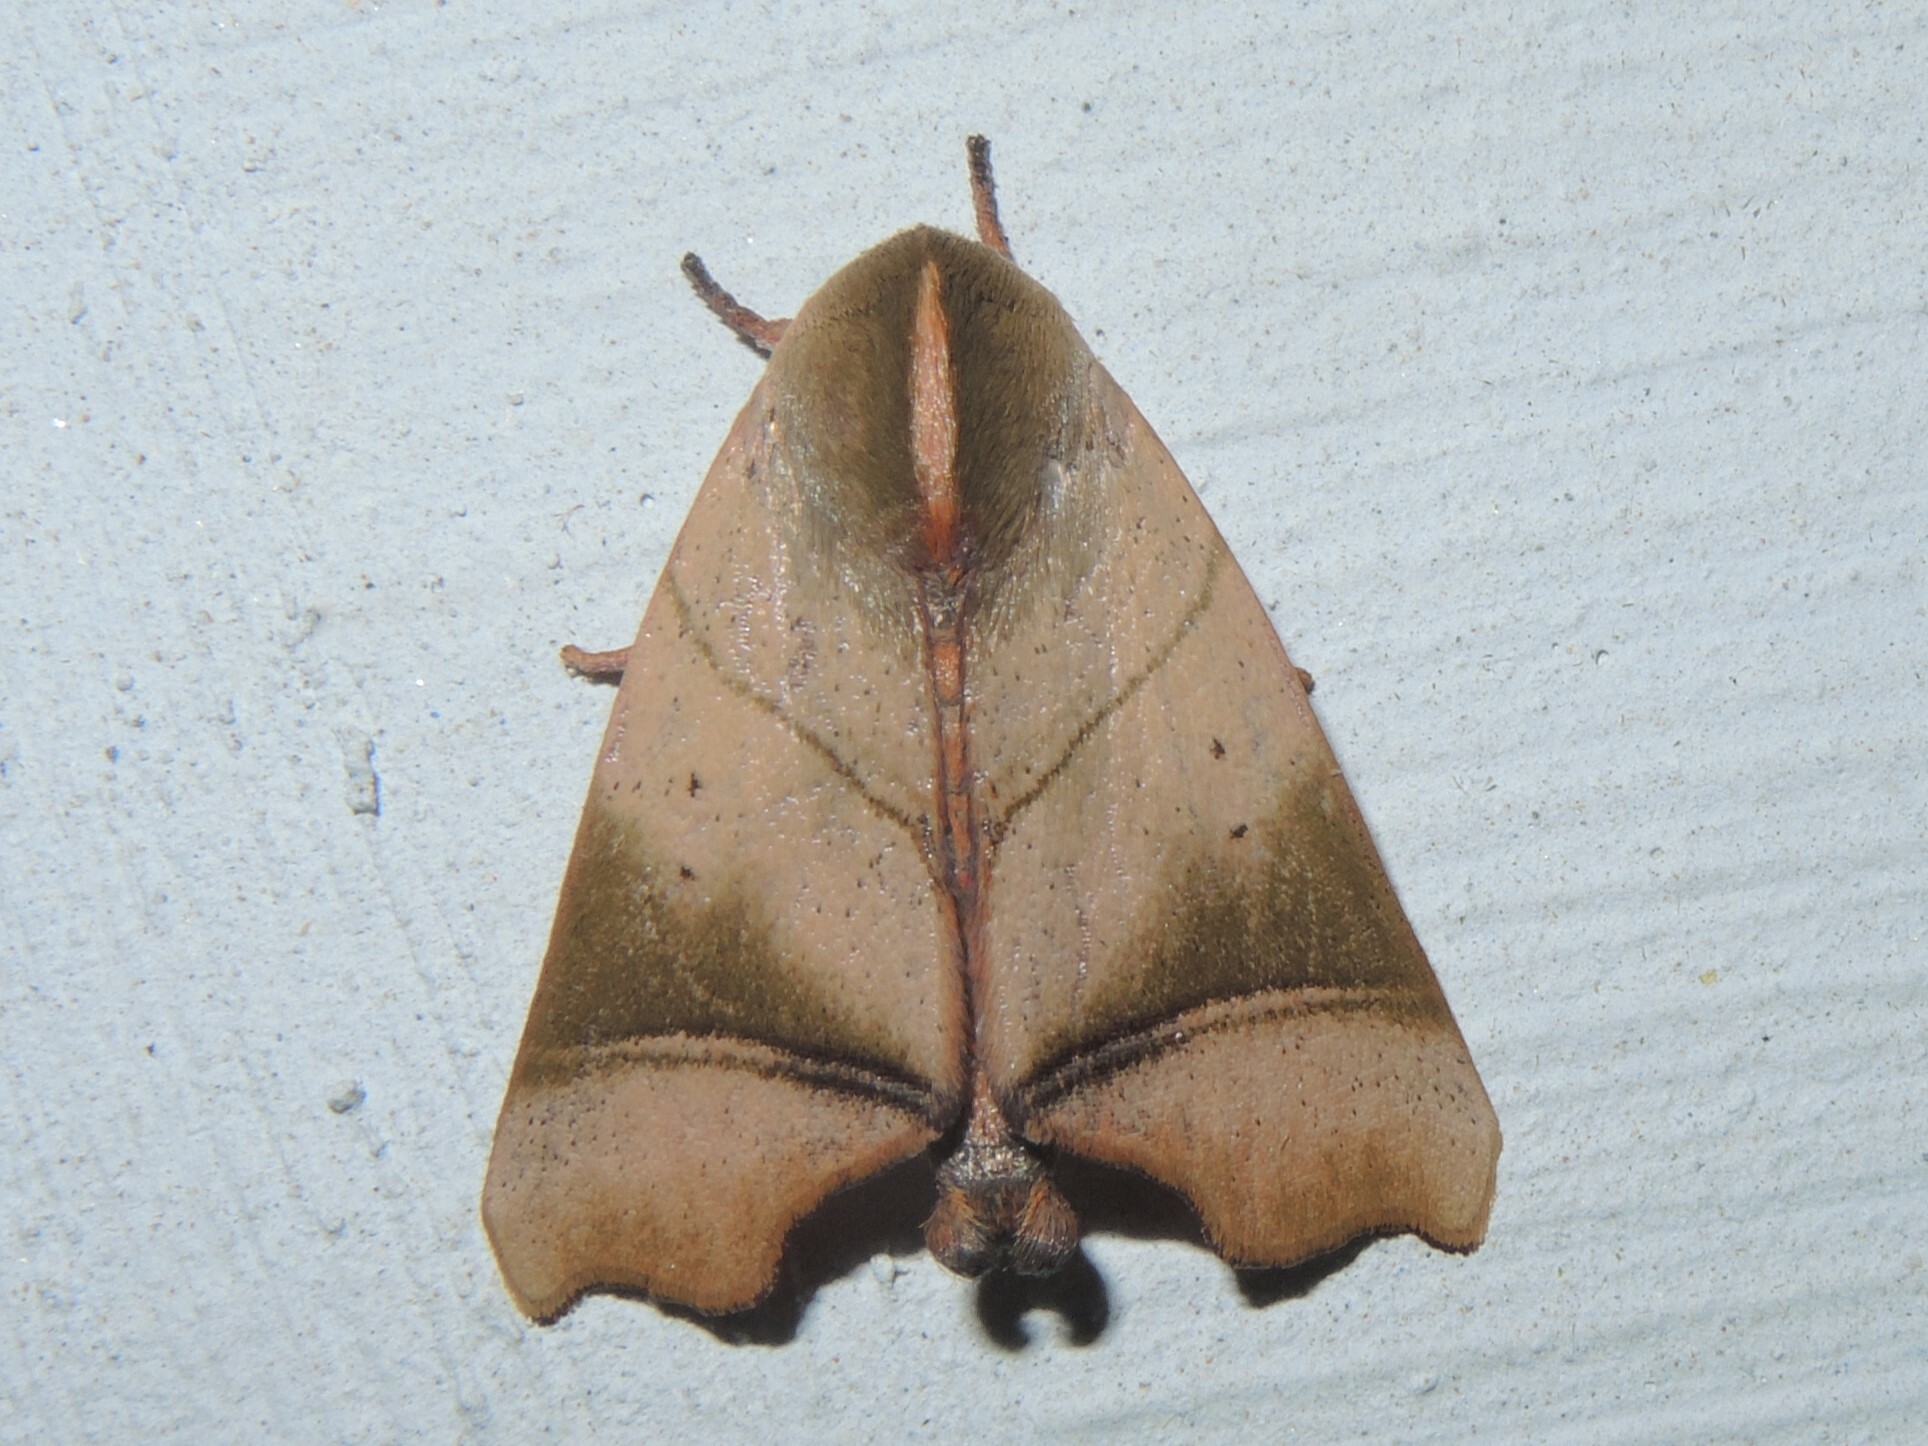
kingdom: Animalia
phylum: Arthropoda
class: Insecta
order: Lepidoptera
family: Nolidae
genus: Carea
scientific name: Carea angulata
